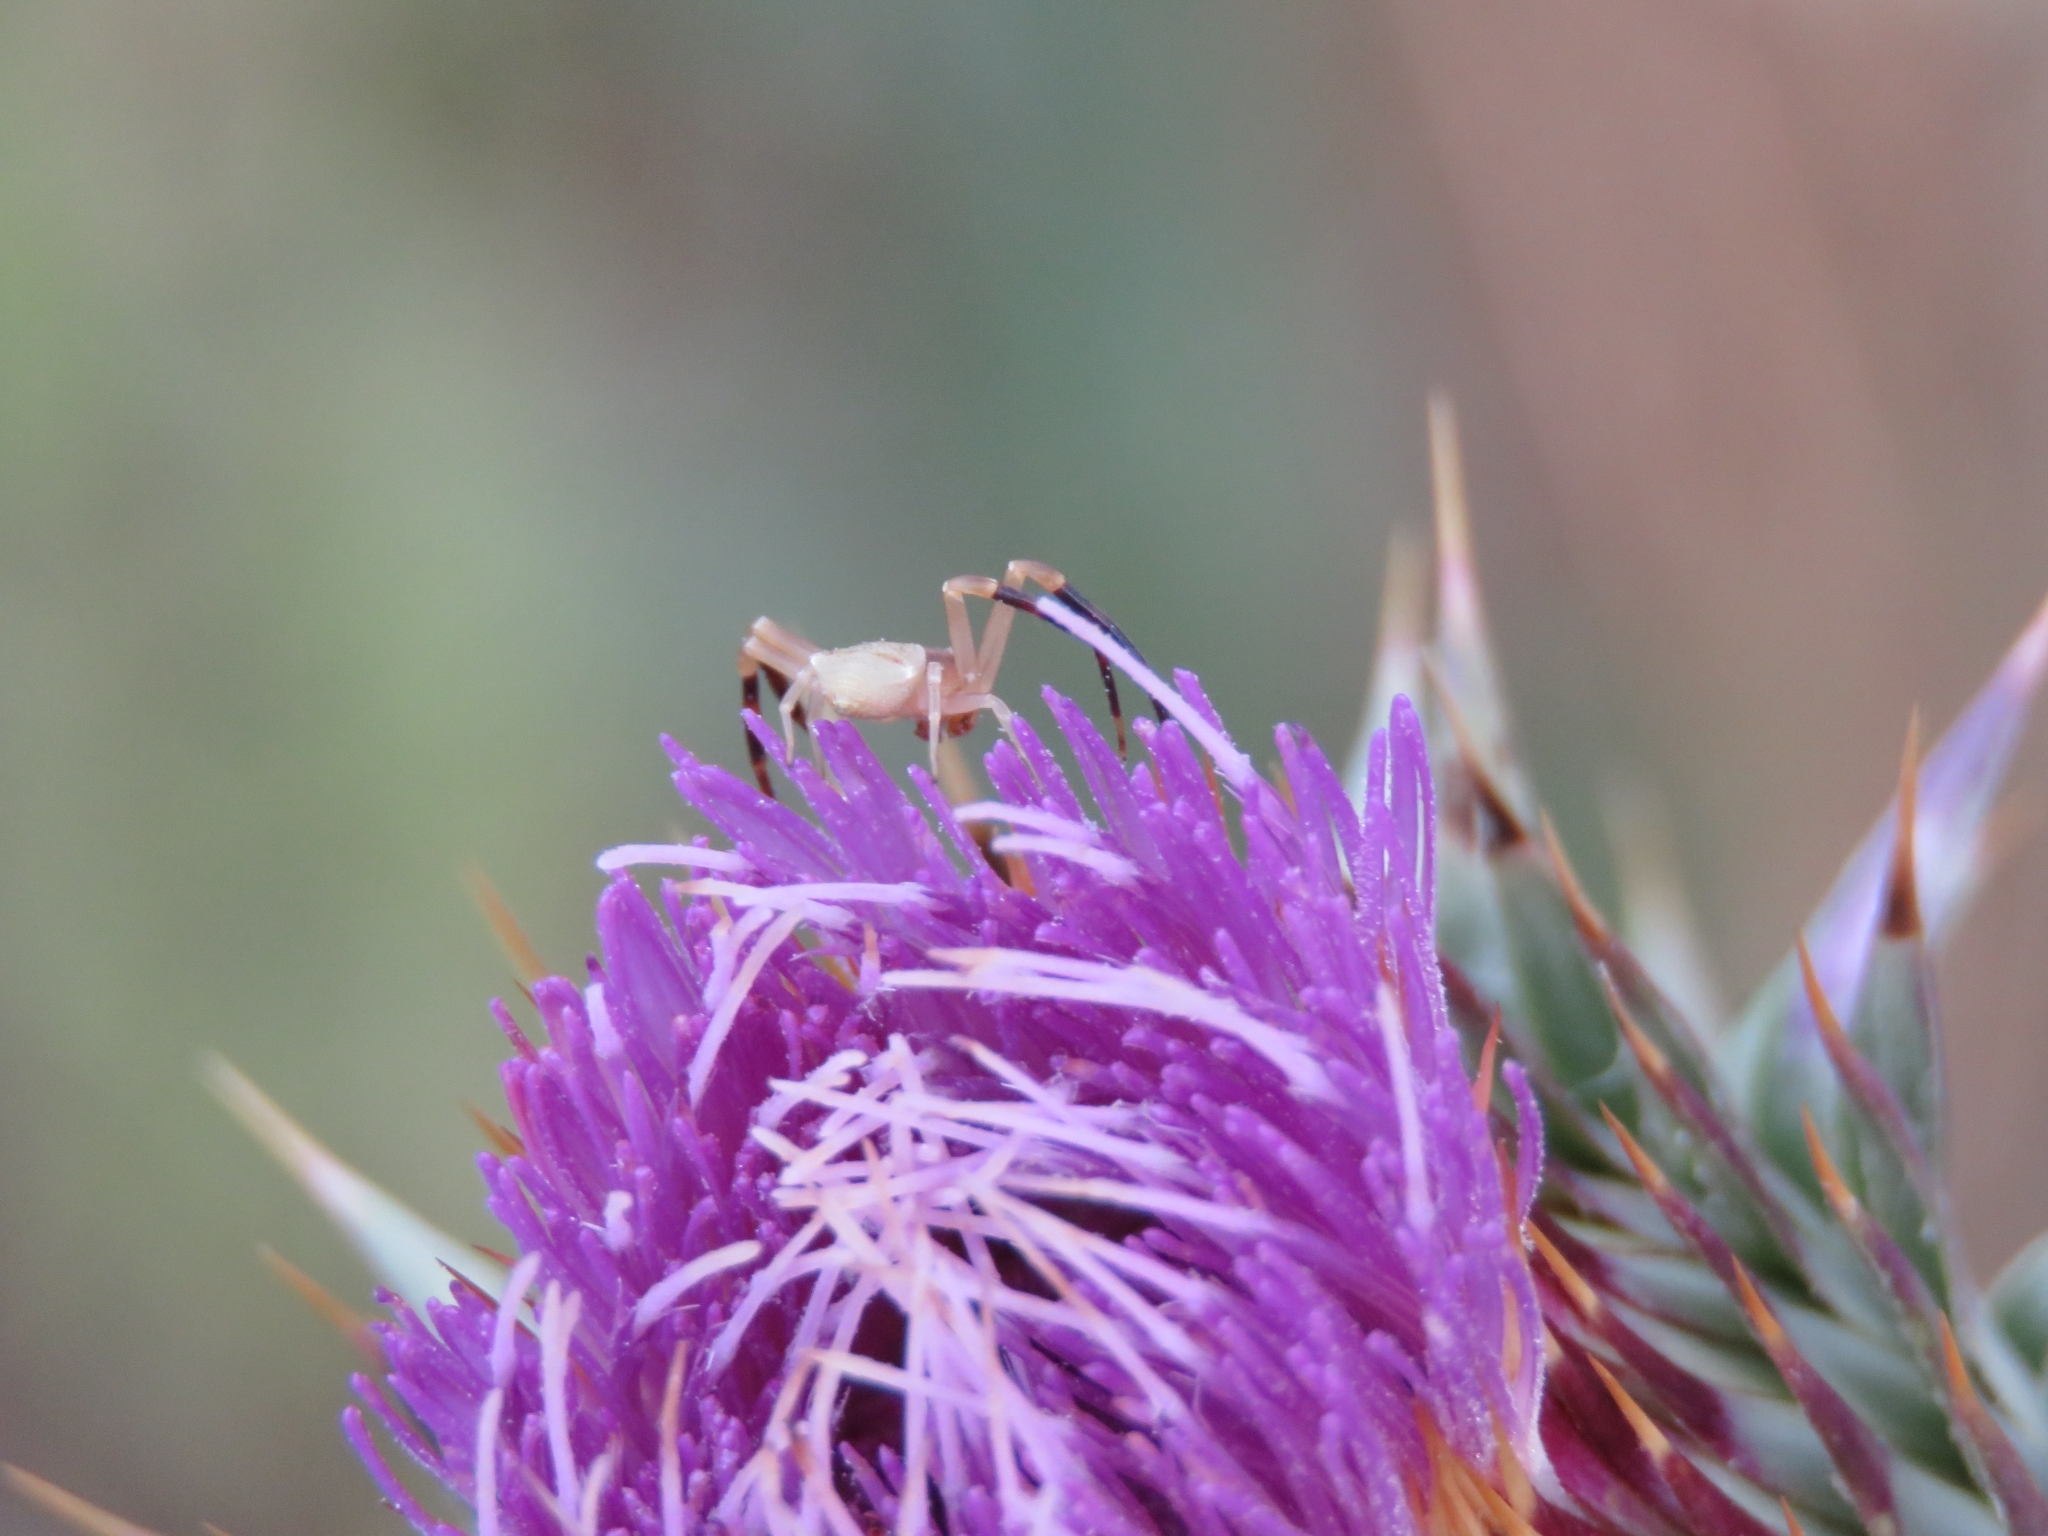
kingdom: Animalia
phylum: Arthropoda
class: Arachnida
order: Araneae
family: Thomisidae
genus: Thomisus
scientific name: Thomisus onustus
